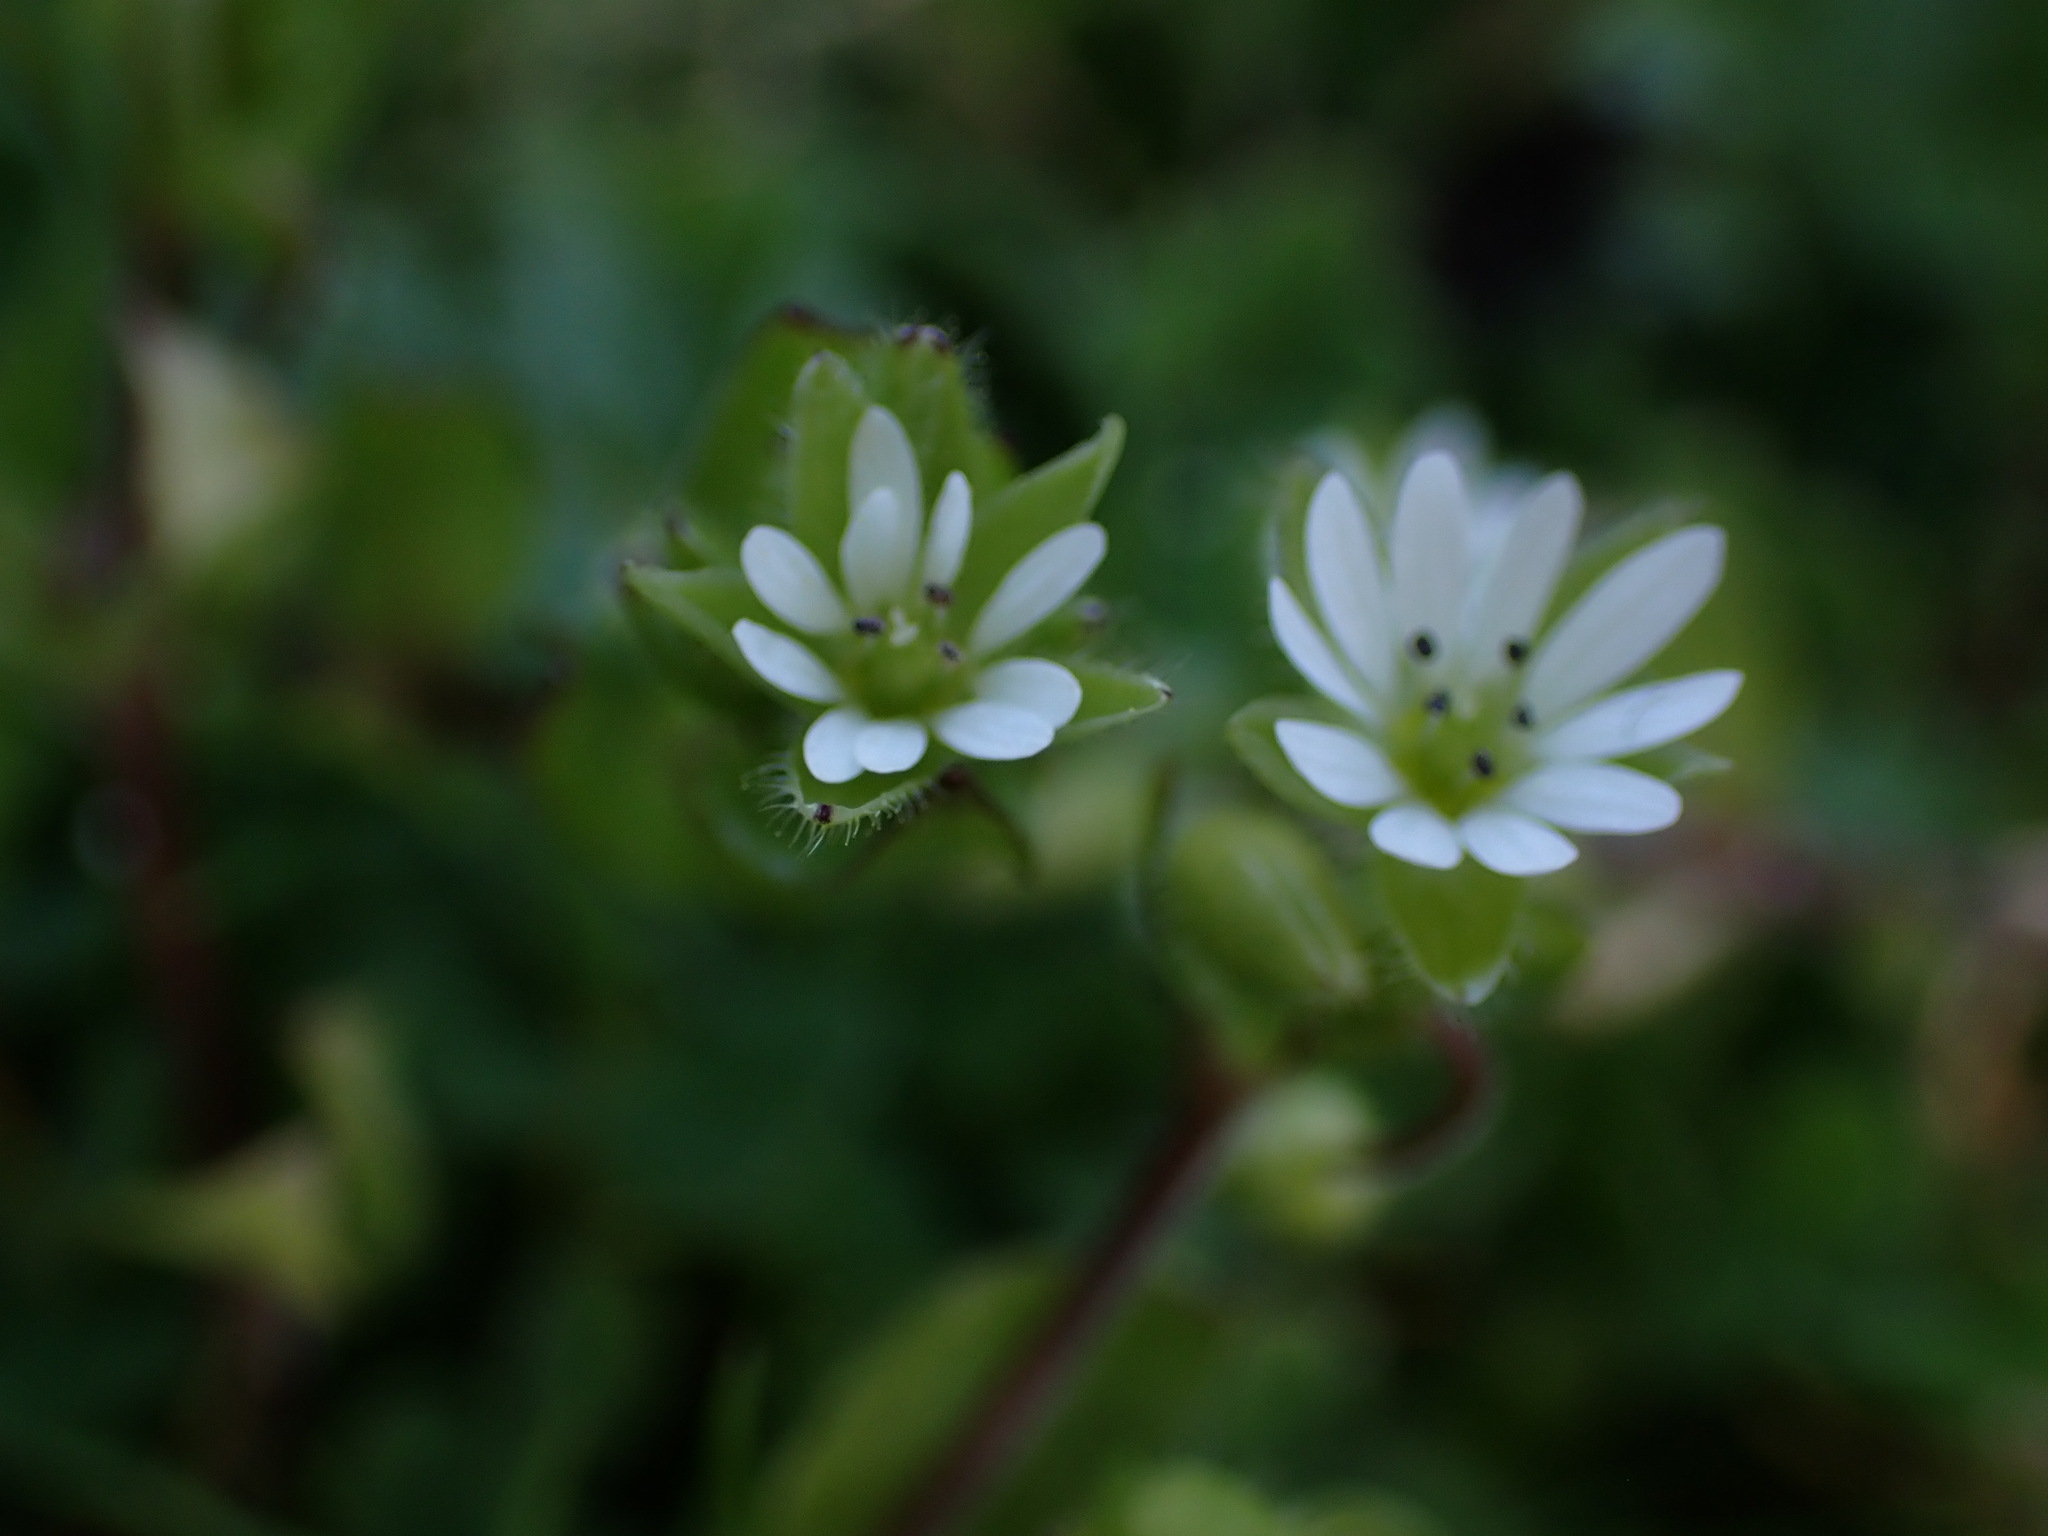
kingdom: Plantae
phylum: Tracheophyta
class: Magnoliopsida
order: Caryophyllales
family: Caryophyllaceae
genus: Stellaria
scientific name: Stellaria media
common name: Common chickweed
